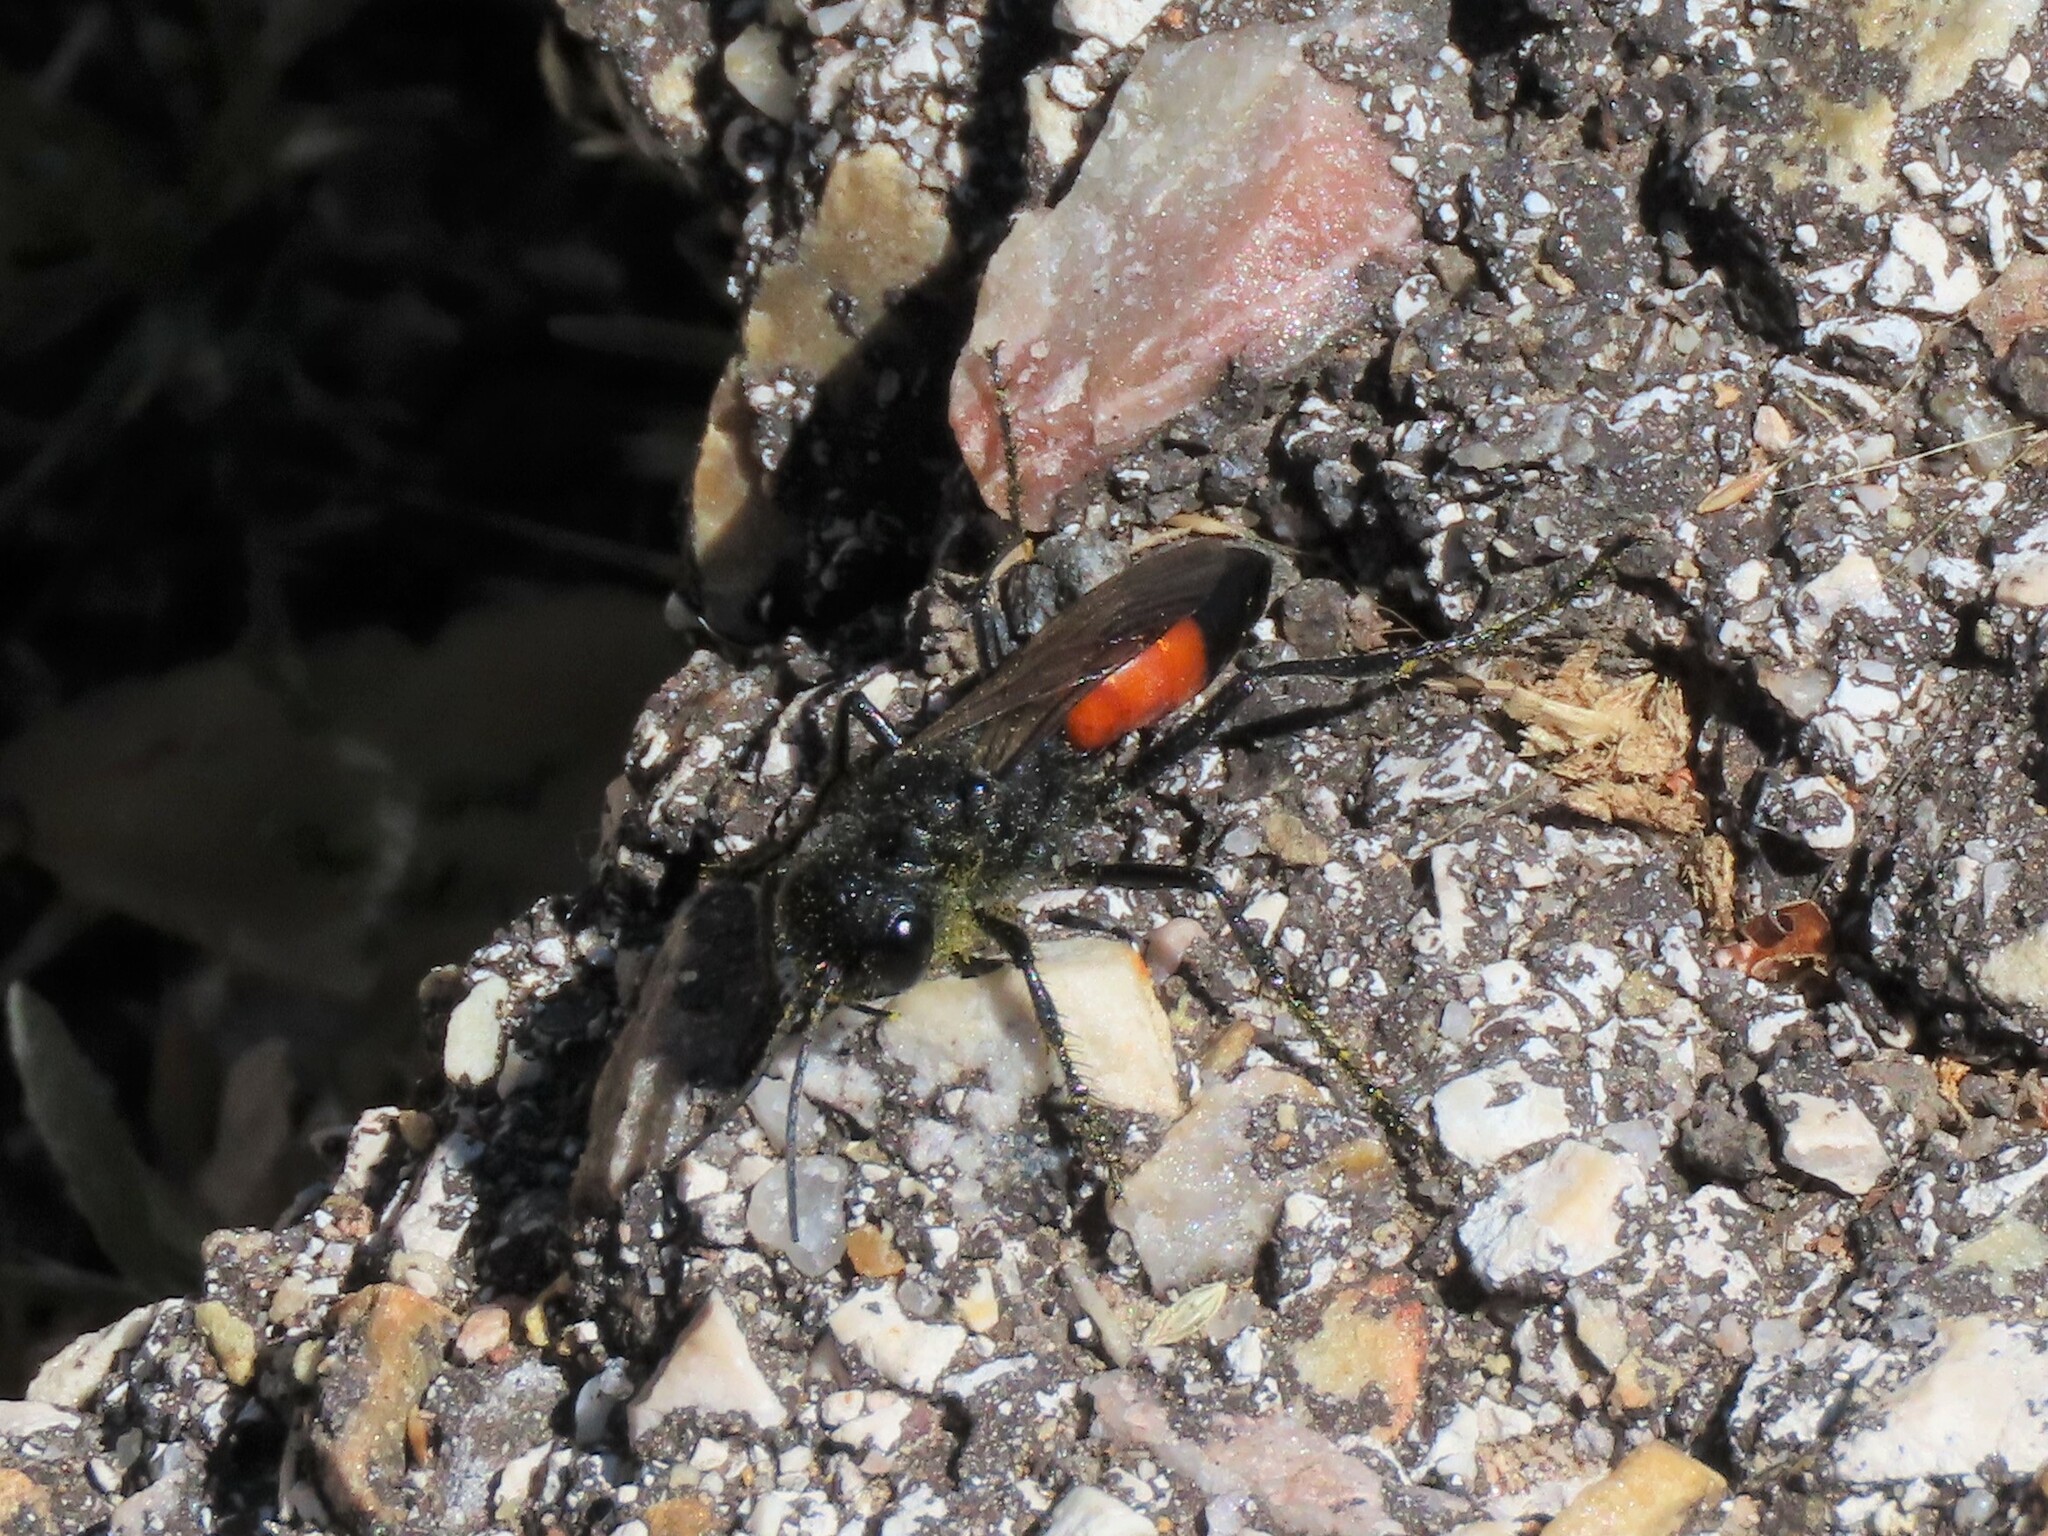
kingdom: Animalia
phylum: Arthropoda
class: Insecta
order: Hymenoptera
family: Sphecidae
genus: Podalonia
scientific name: Podalonia hirsuta
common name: Hairy sand wasp
